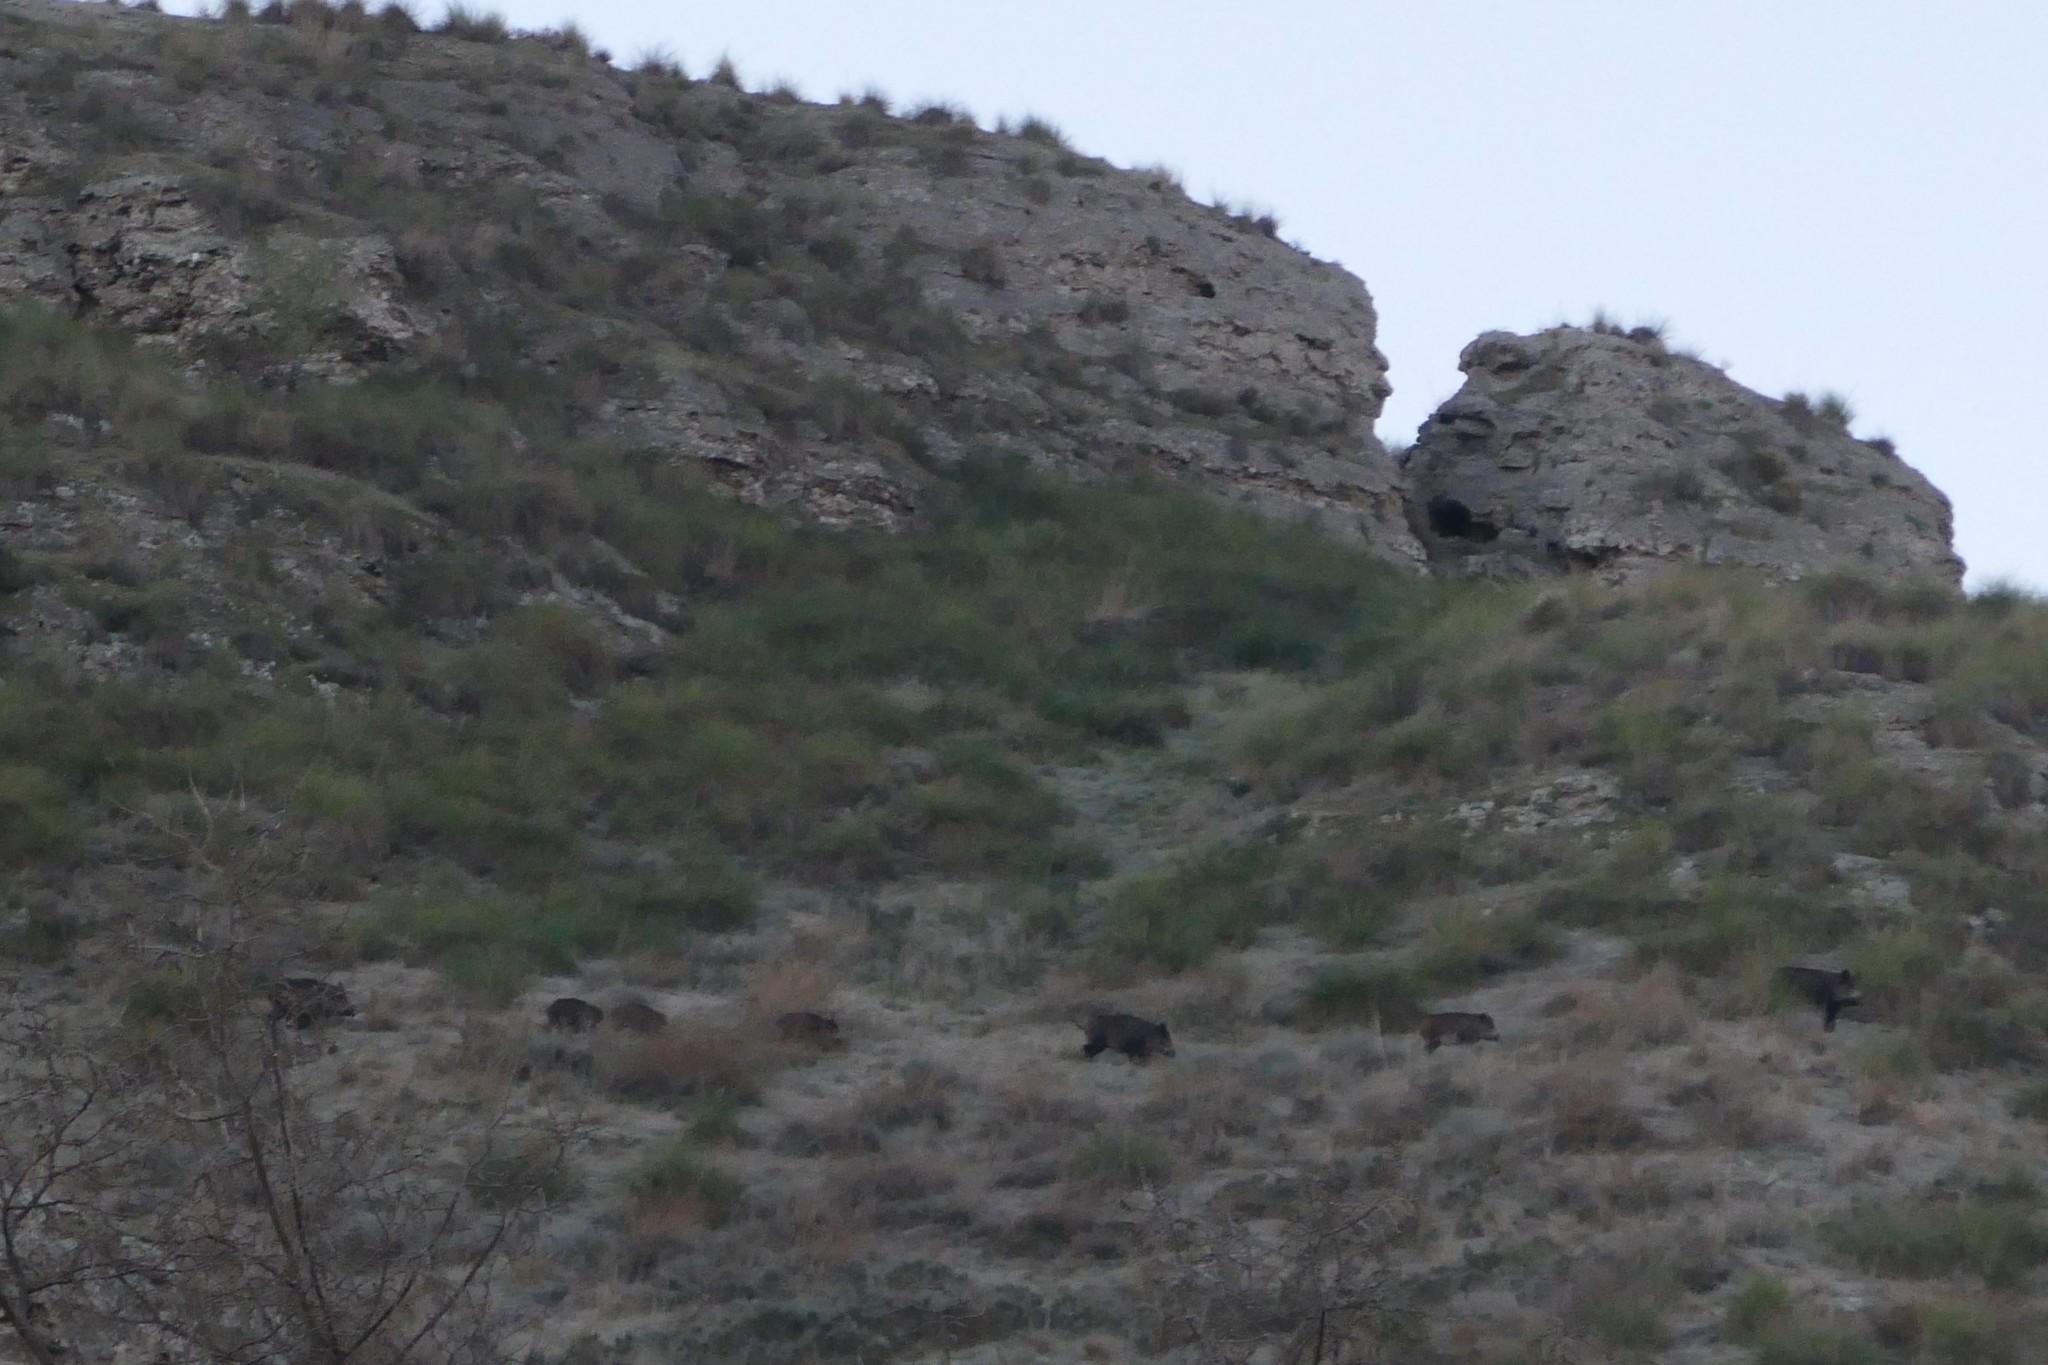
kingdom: Animalia
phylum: Chordata
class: Mammalia
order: Artiodactyla
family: Suidae
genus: Sus
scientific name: Sus scrofa
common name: Wild boar
